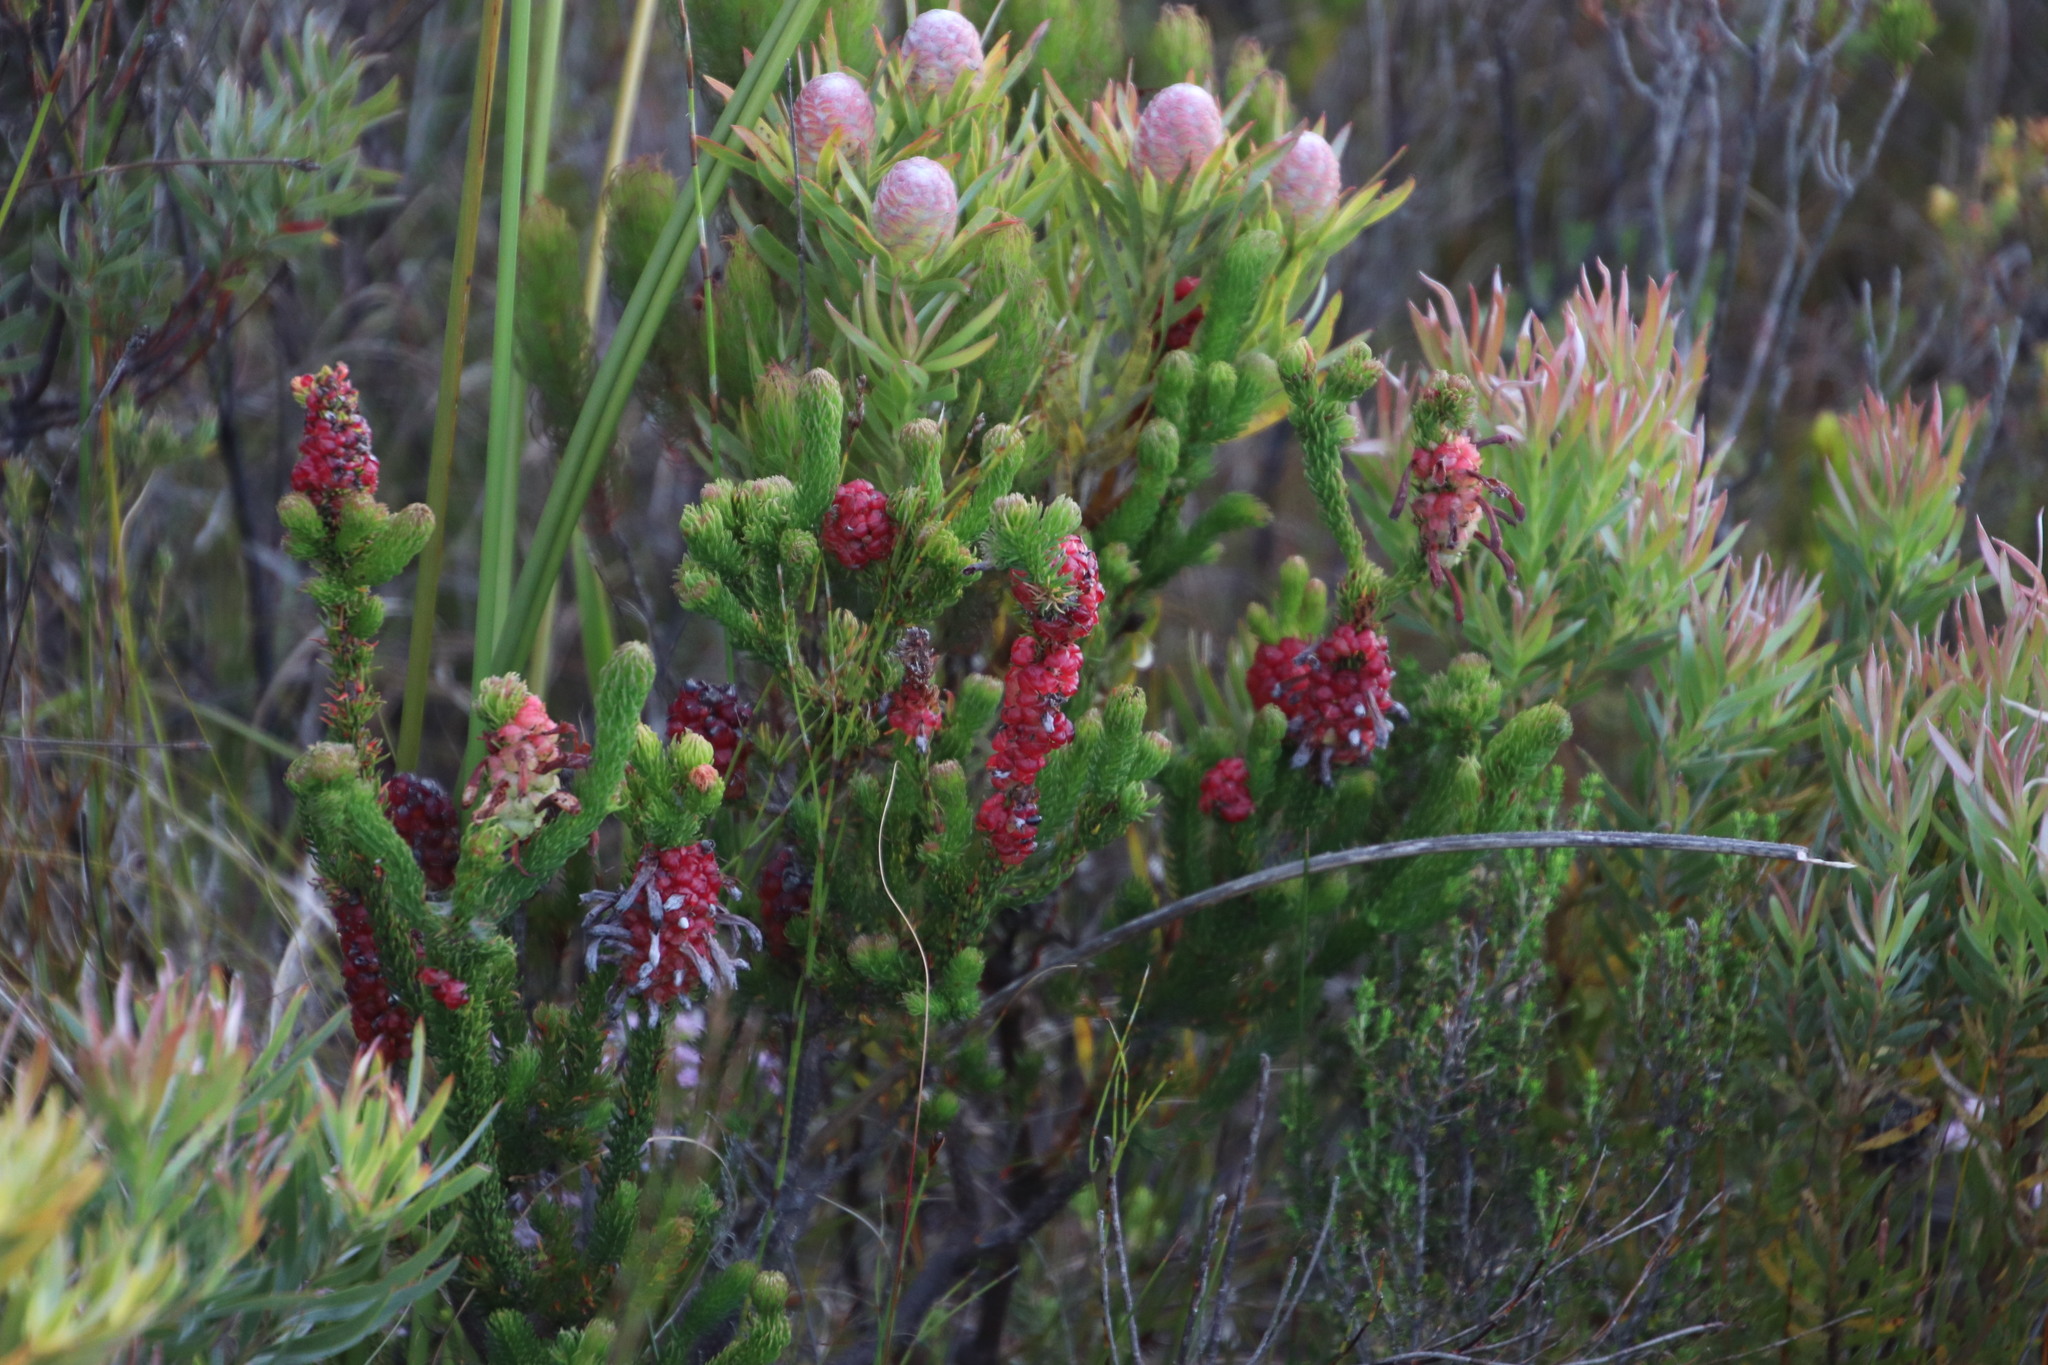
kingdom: Plantae
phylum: Tracheophyta
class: Magnoliopsida
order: Ericales
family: Ericaceae
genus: Erica
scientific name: Erica sessiliflora
